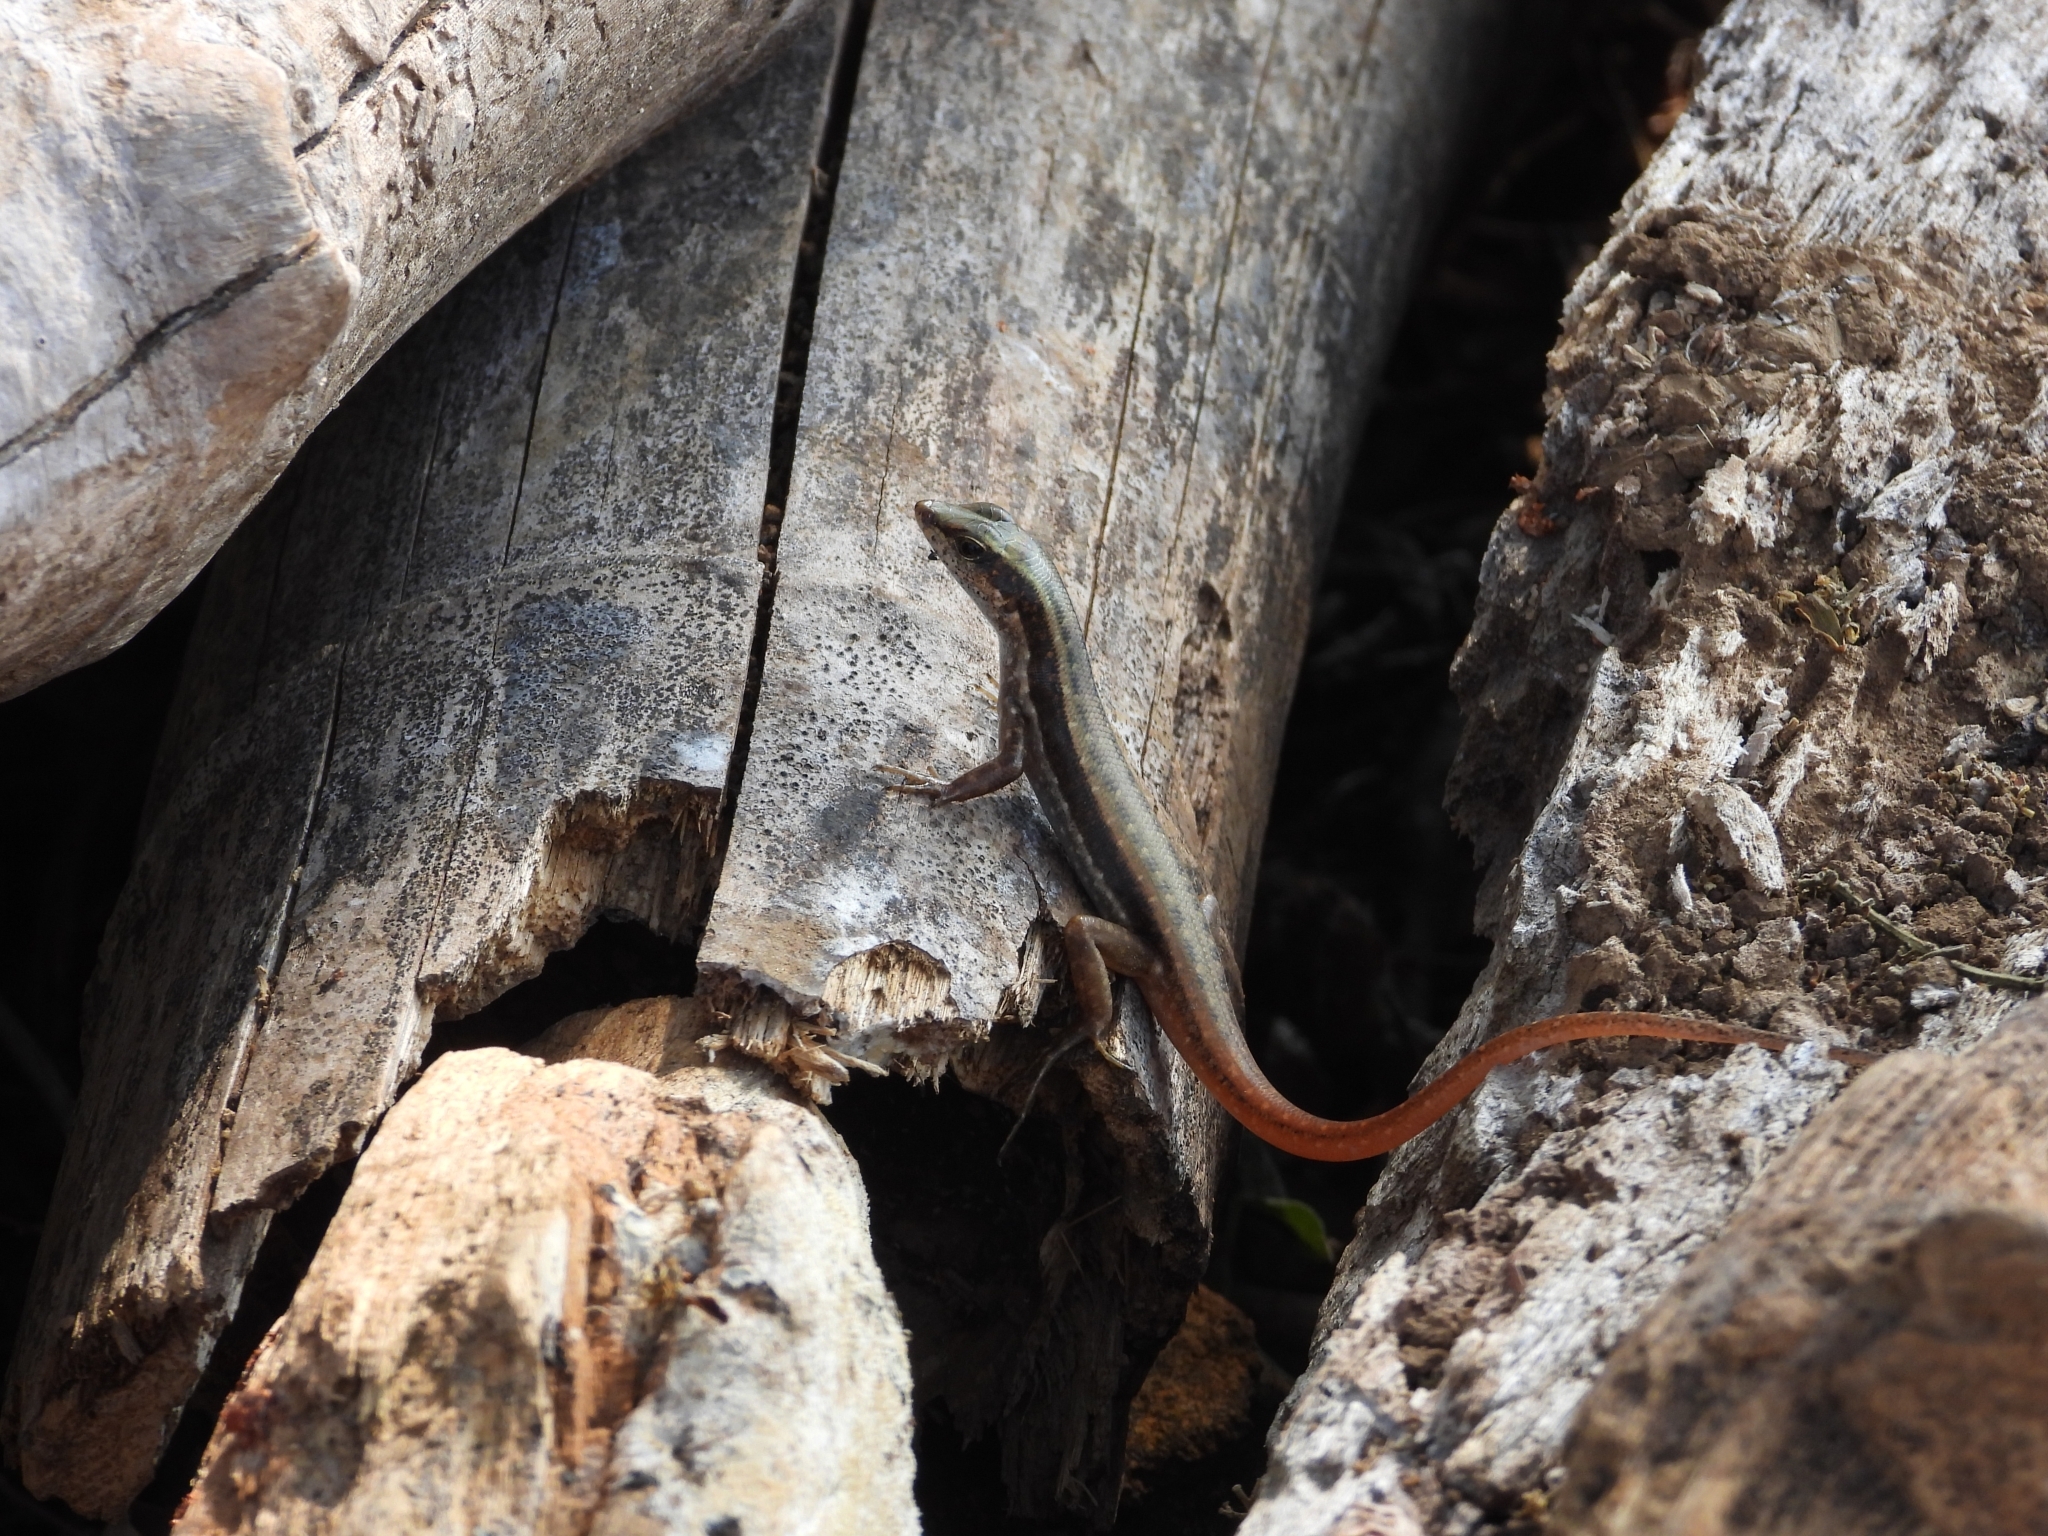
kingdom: Animalia
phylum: Chordata
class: Squamata
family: Scincidae
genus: Sphenomorphus
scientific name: Sphenomorphus dussumieri
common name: Dussumier's forest skink
